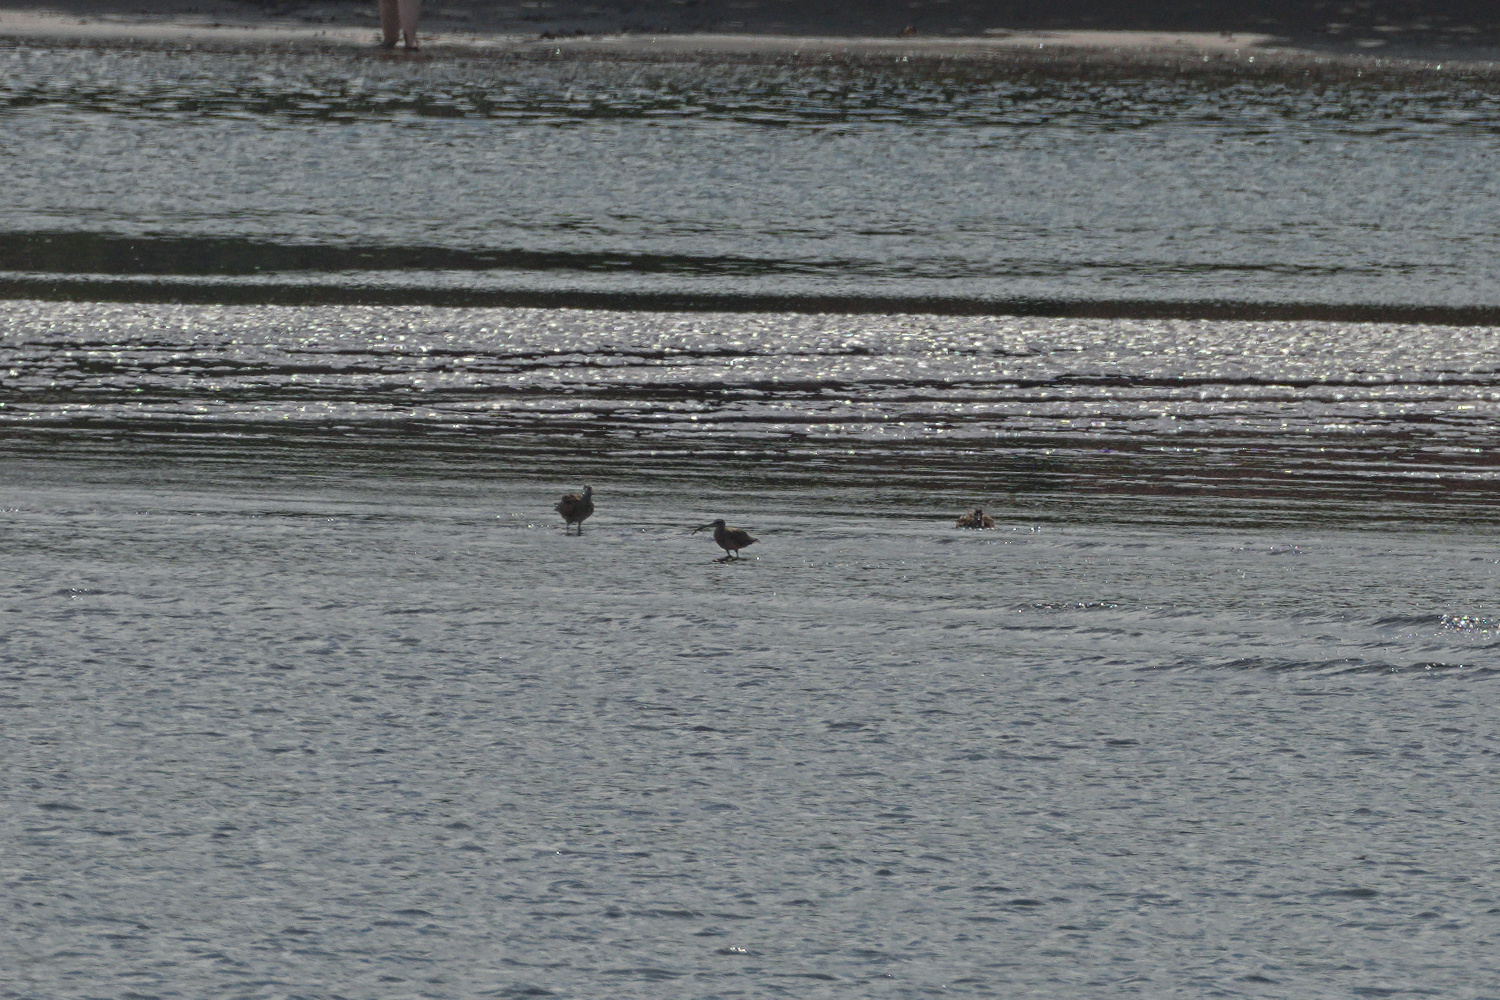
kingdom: Animalia
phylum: Chordata
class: Aves
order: Charadriiformes
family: Scolopacidae
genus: Numenius
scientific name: Numenius phaeopus
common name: Whimbrel
